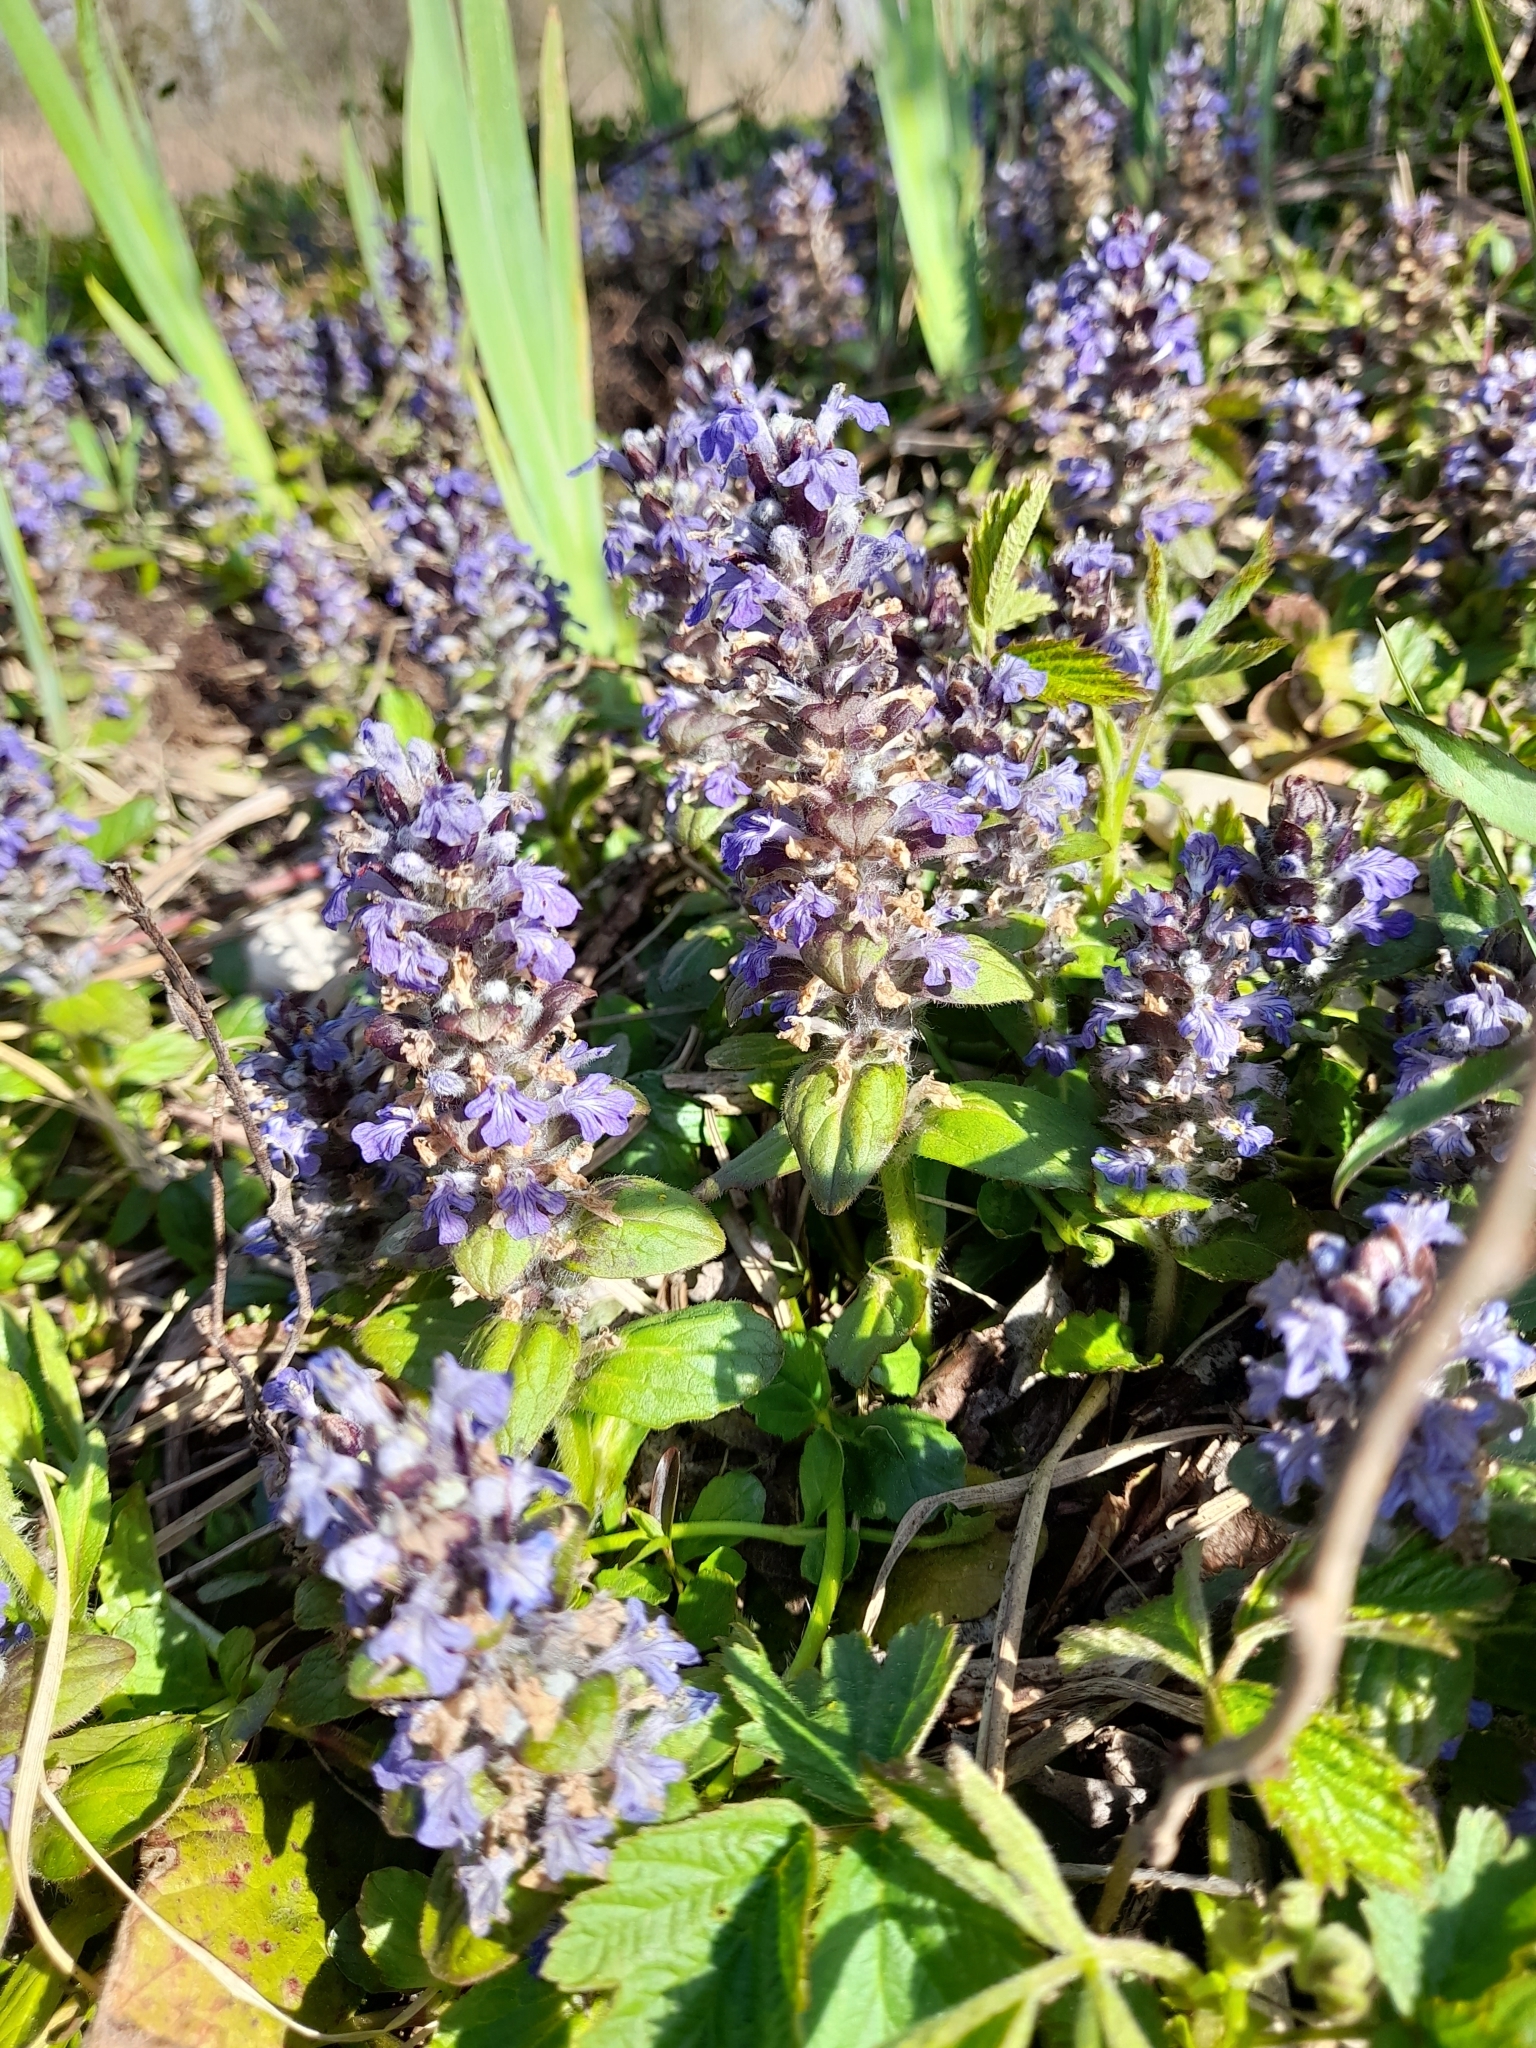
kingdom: Plantae
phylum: Tracheophyta
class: Magnoliopsida
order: Lamiales
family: Lamiaceae
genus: Ajuga
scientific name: Ajuga reptans
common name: Bugle
